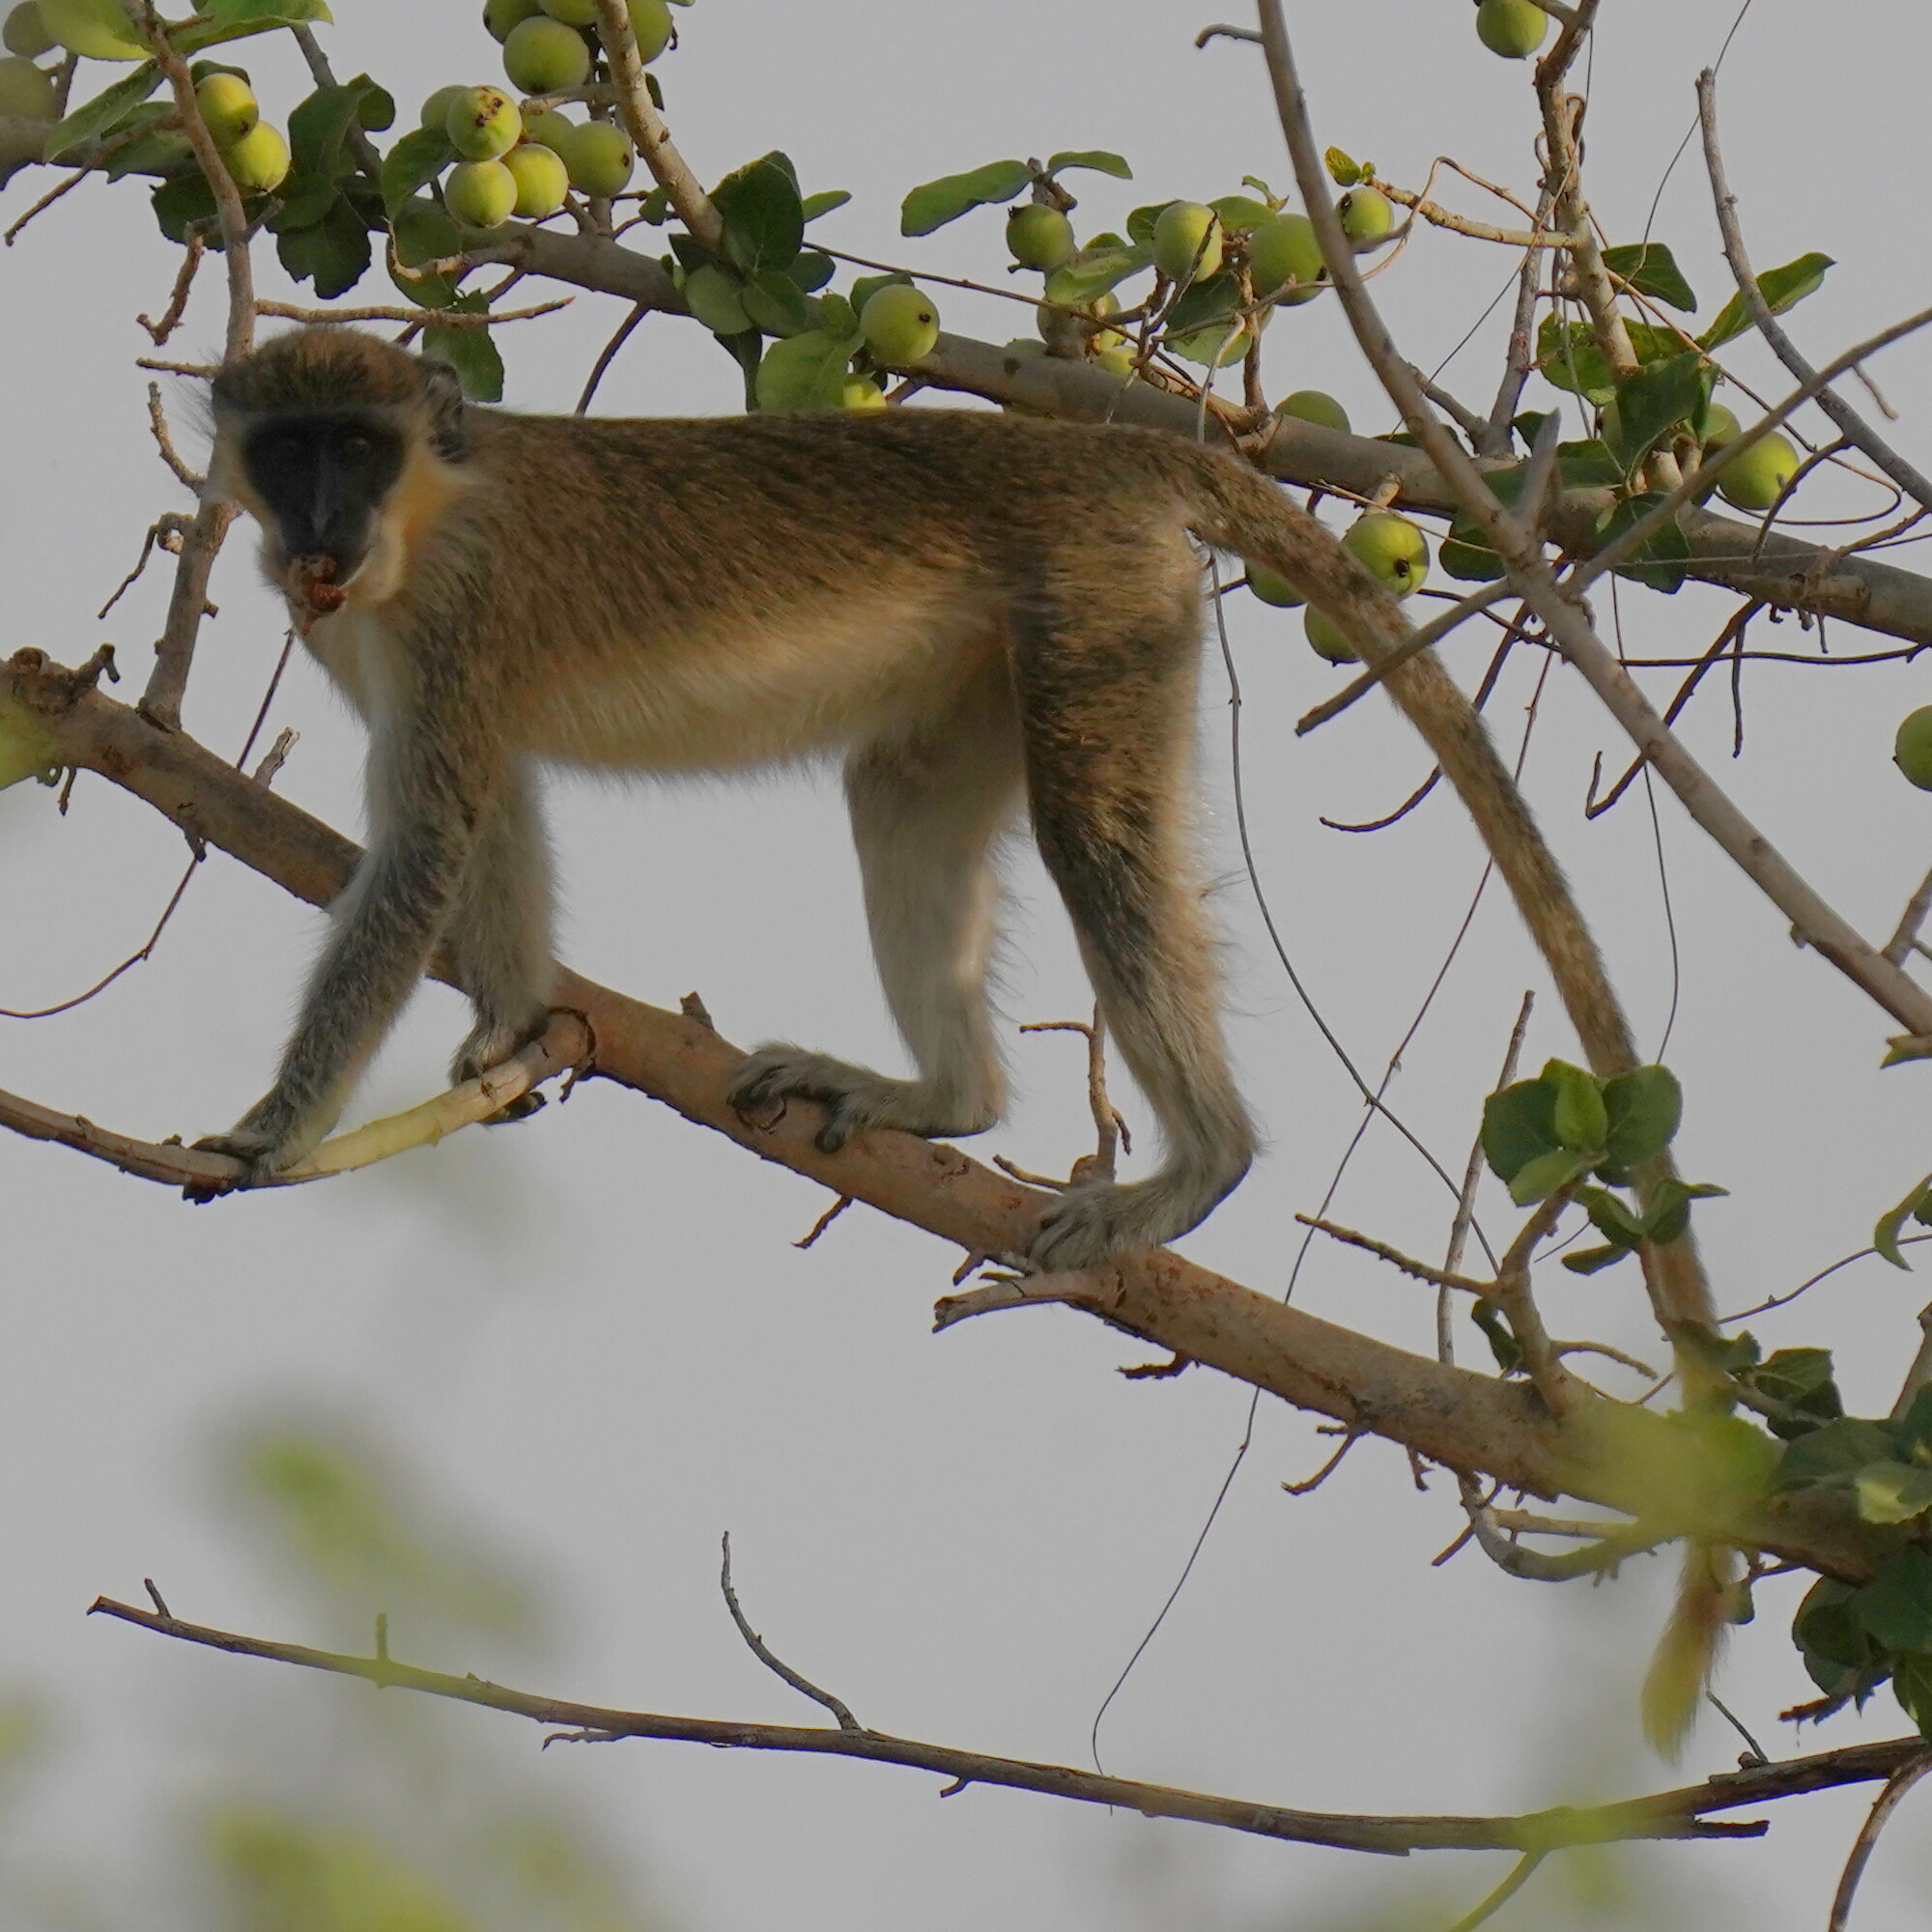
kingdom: Animalia
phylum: Chordata
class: Mammalia
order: Primates
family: Cercopithecidae
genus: Chlorocebus
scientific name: Chlorocebus sabaeus
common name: Green monkey
